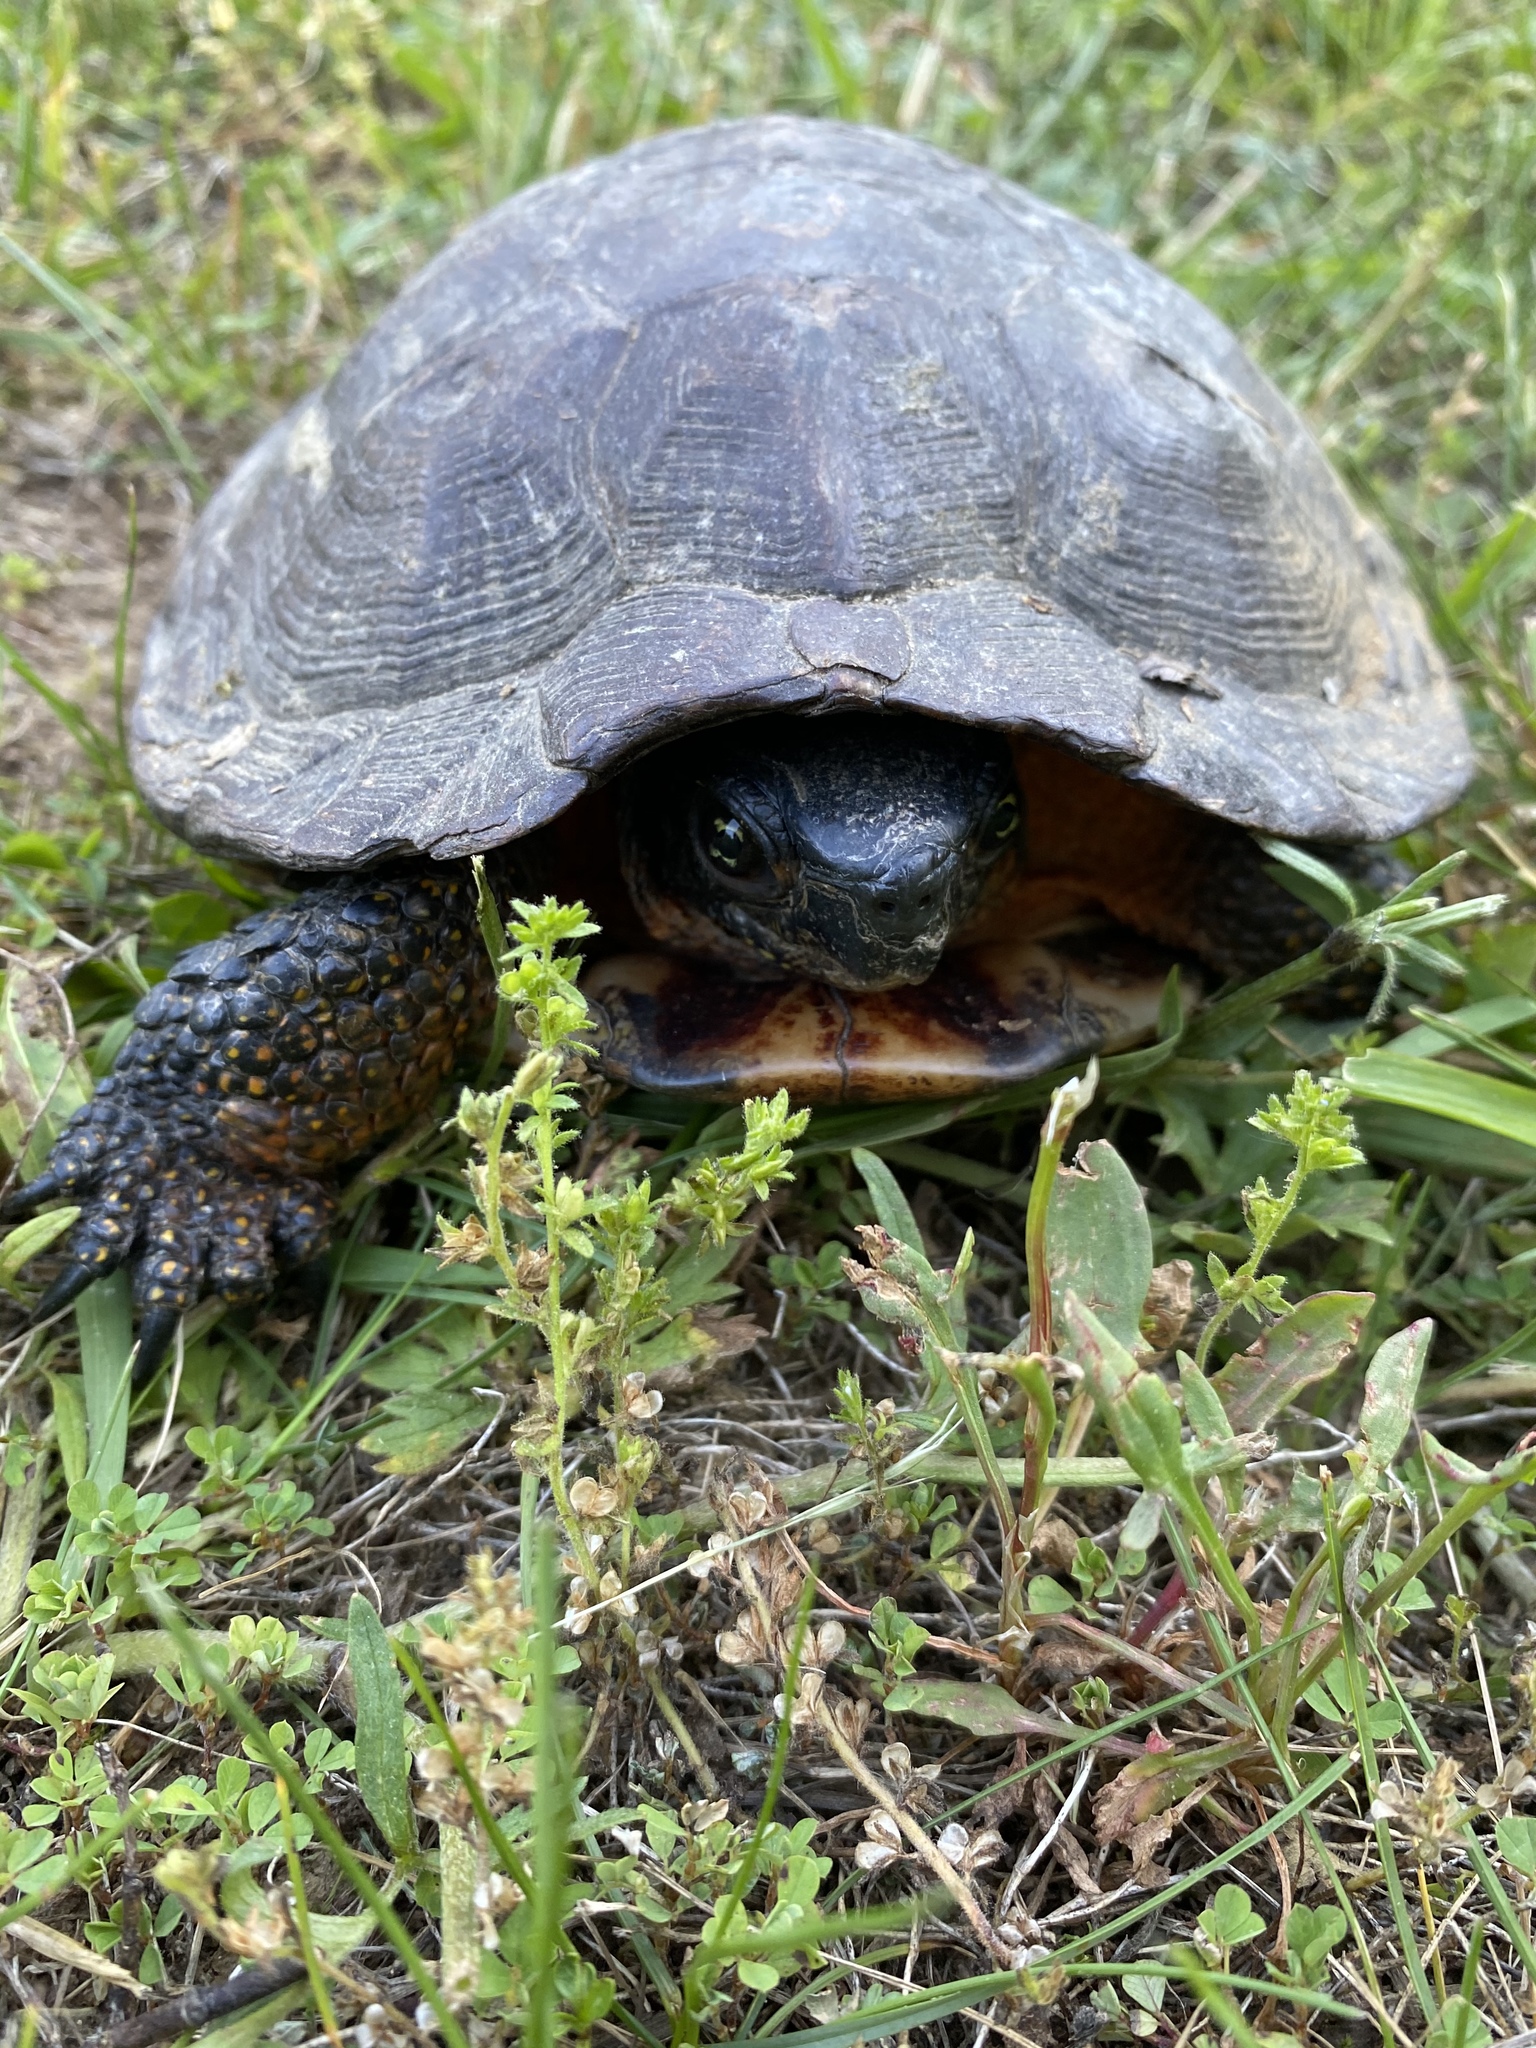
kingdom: Animalia
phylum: Chordata
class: Testudines
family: Emydidae
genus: Glyptemys
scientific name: Glyptemys insculpta
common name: Wood turtle
